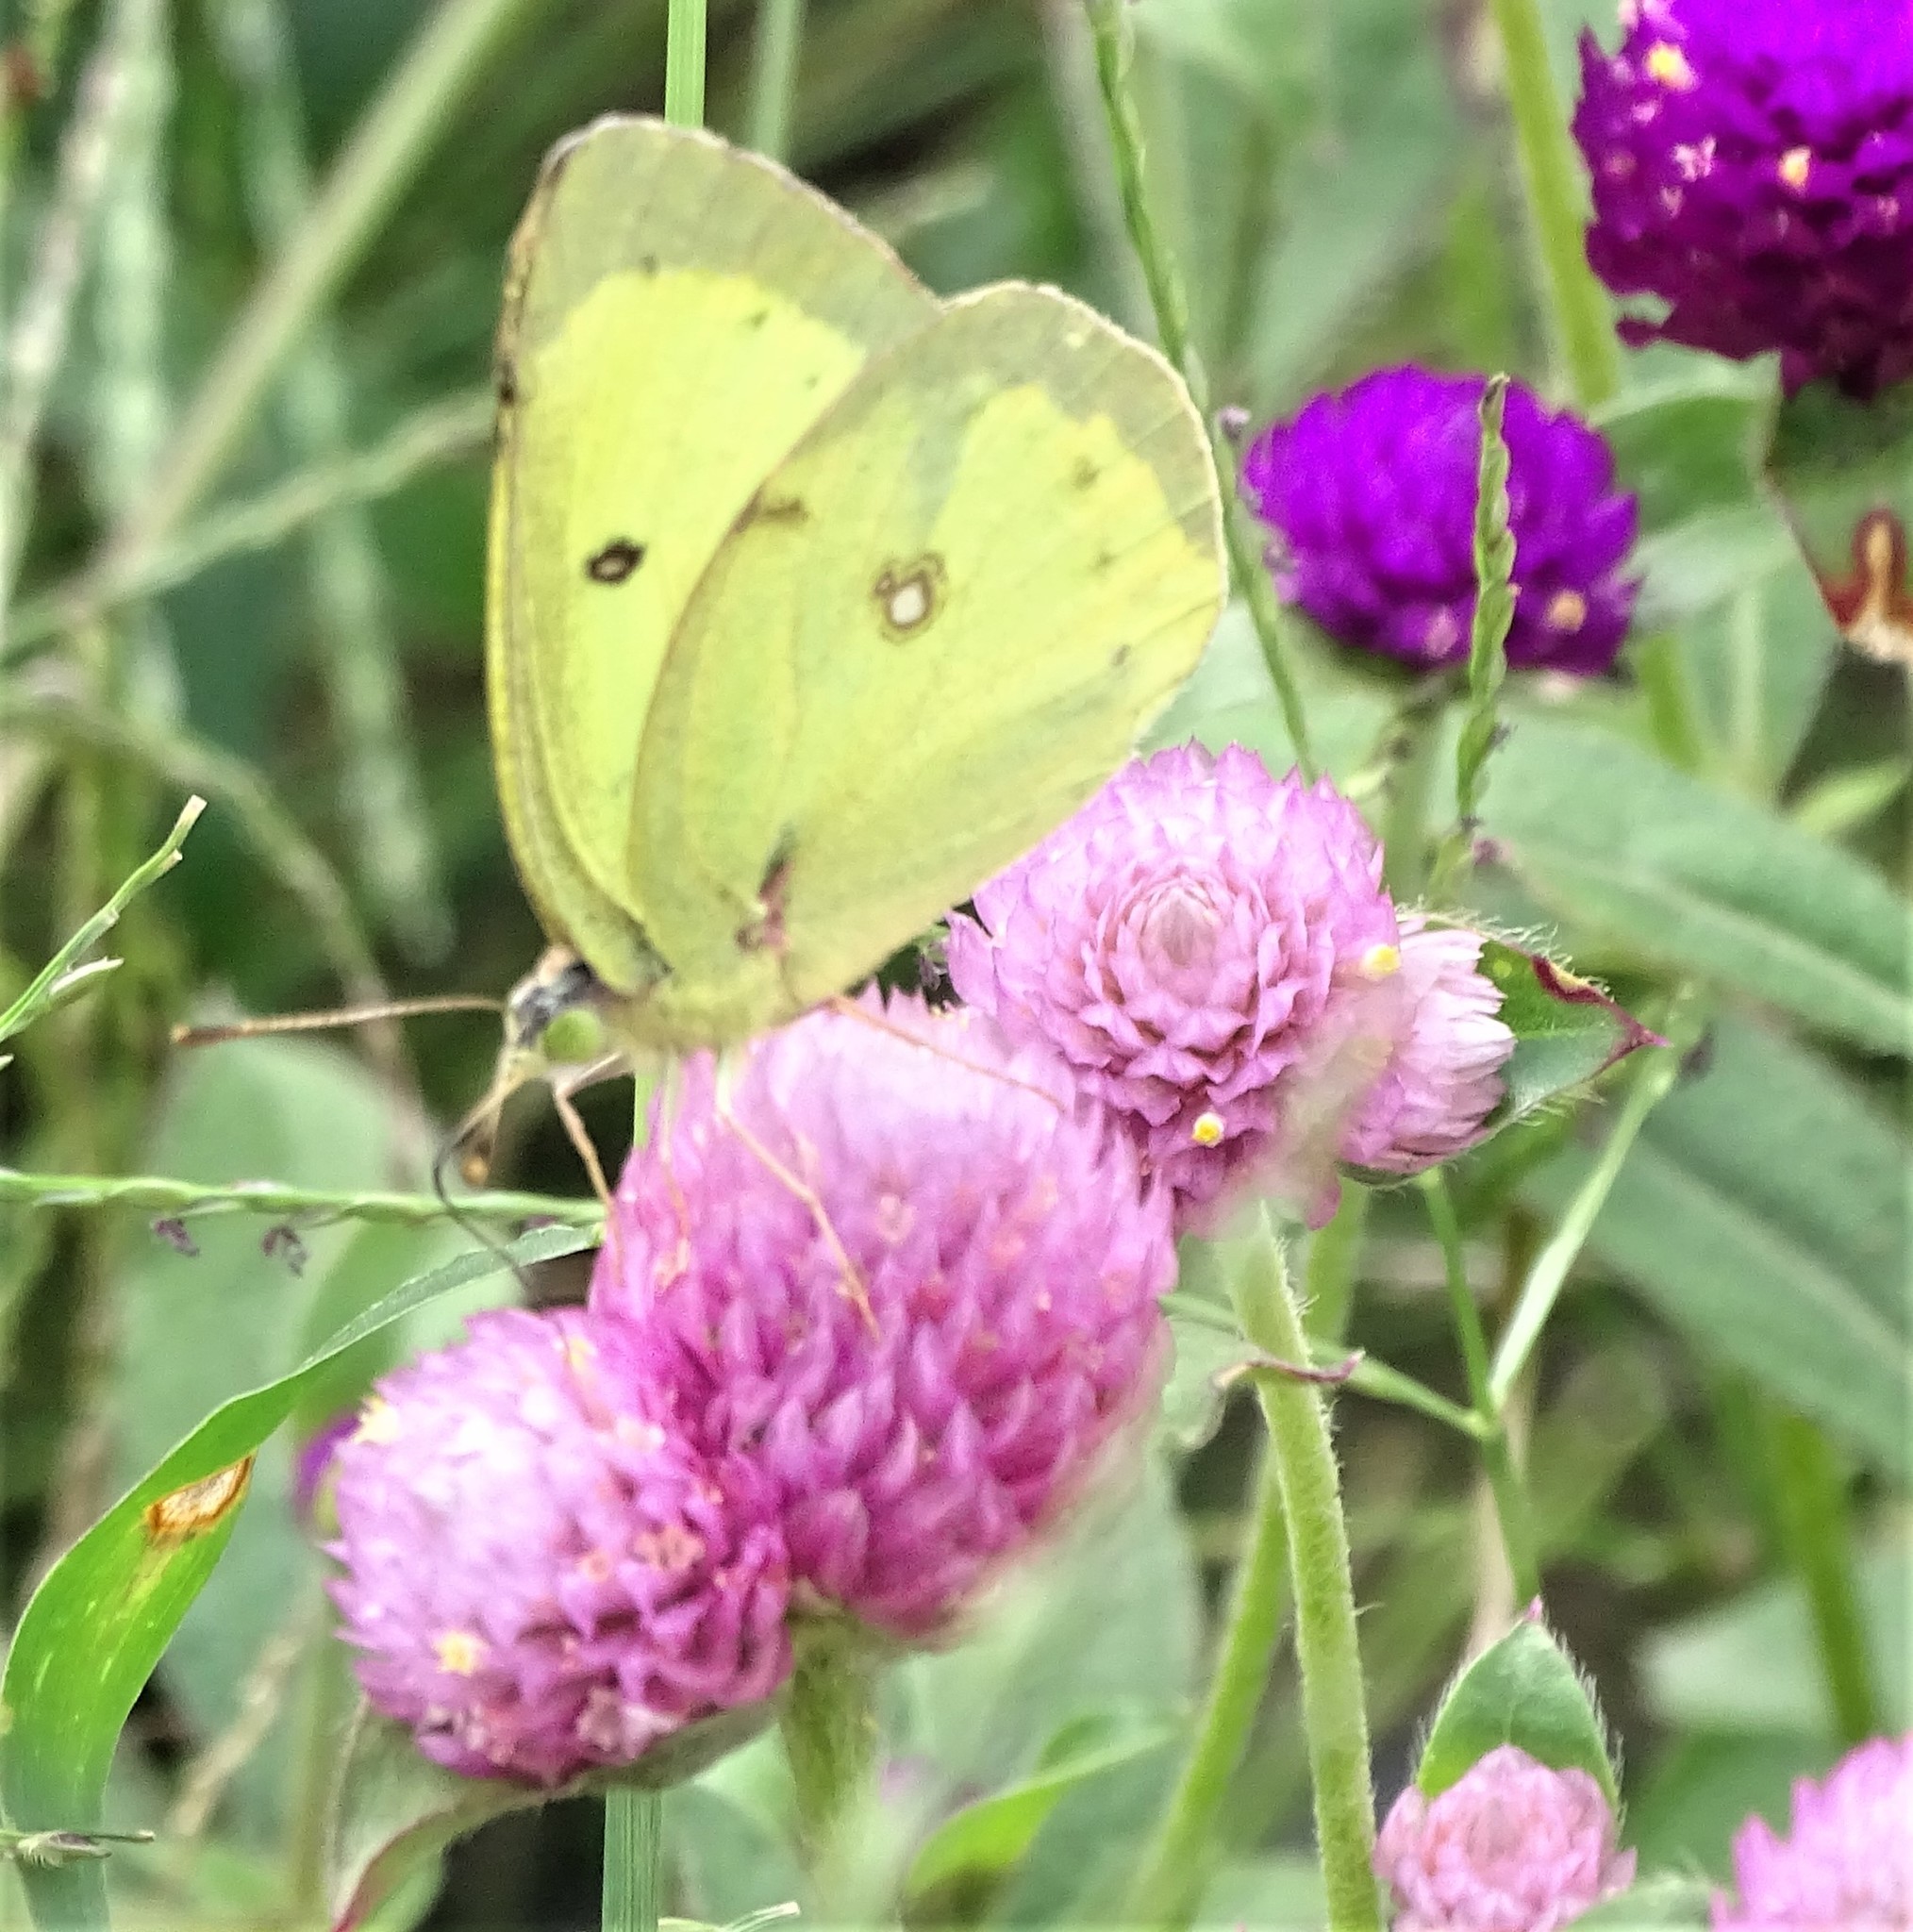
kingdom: Animalia
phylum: Arthropoda
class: Insecta
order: Lepidoptera
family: Pieridae
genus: Colias
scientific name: Colias philodice
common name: Clouded sulphur
